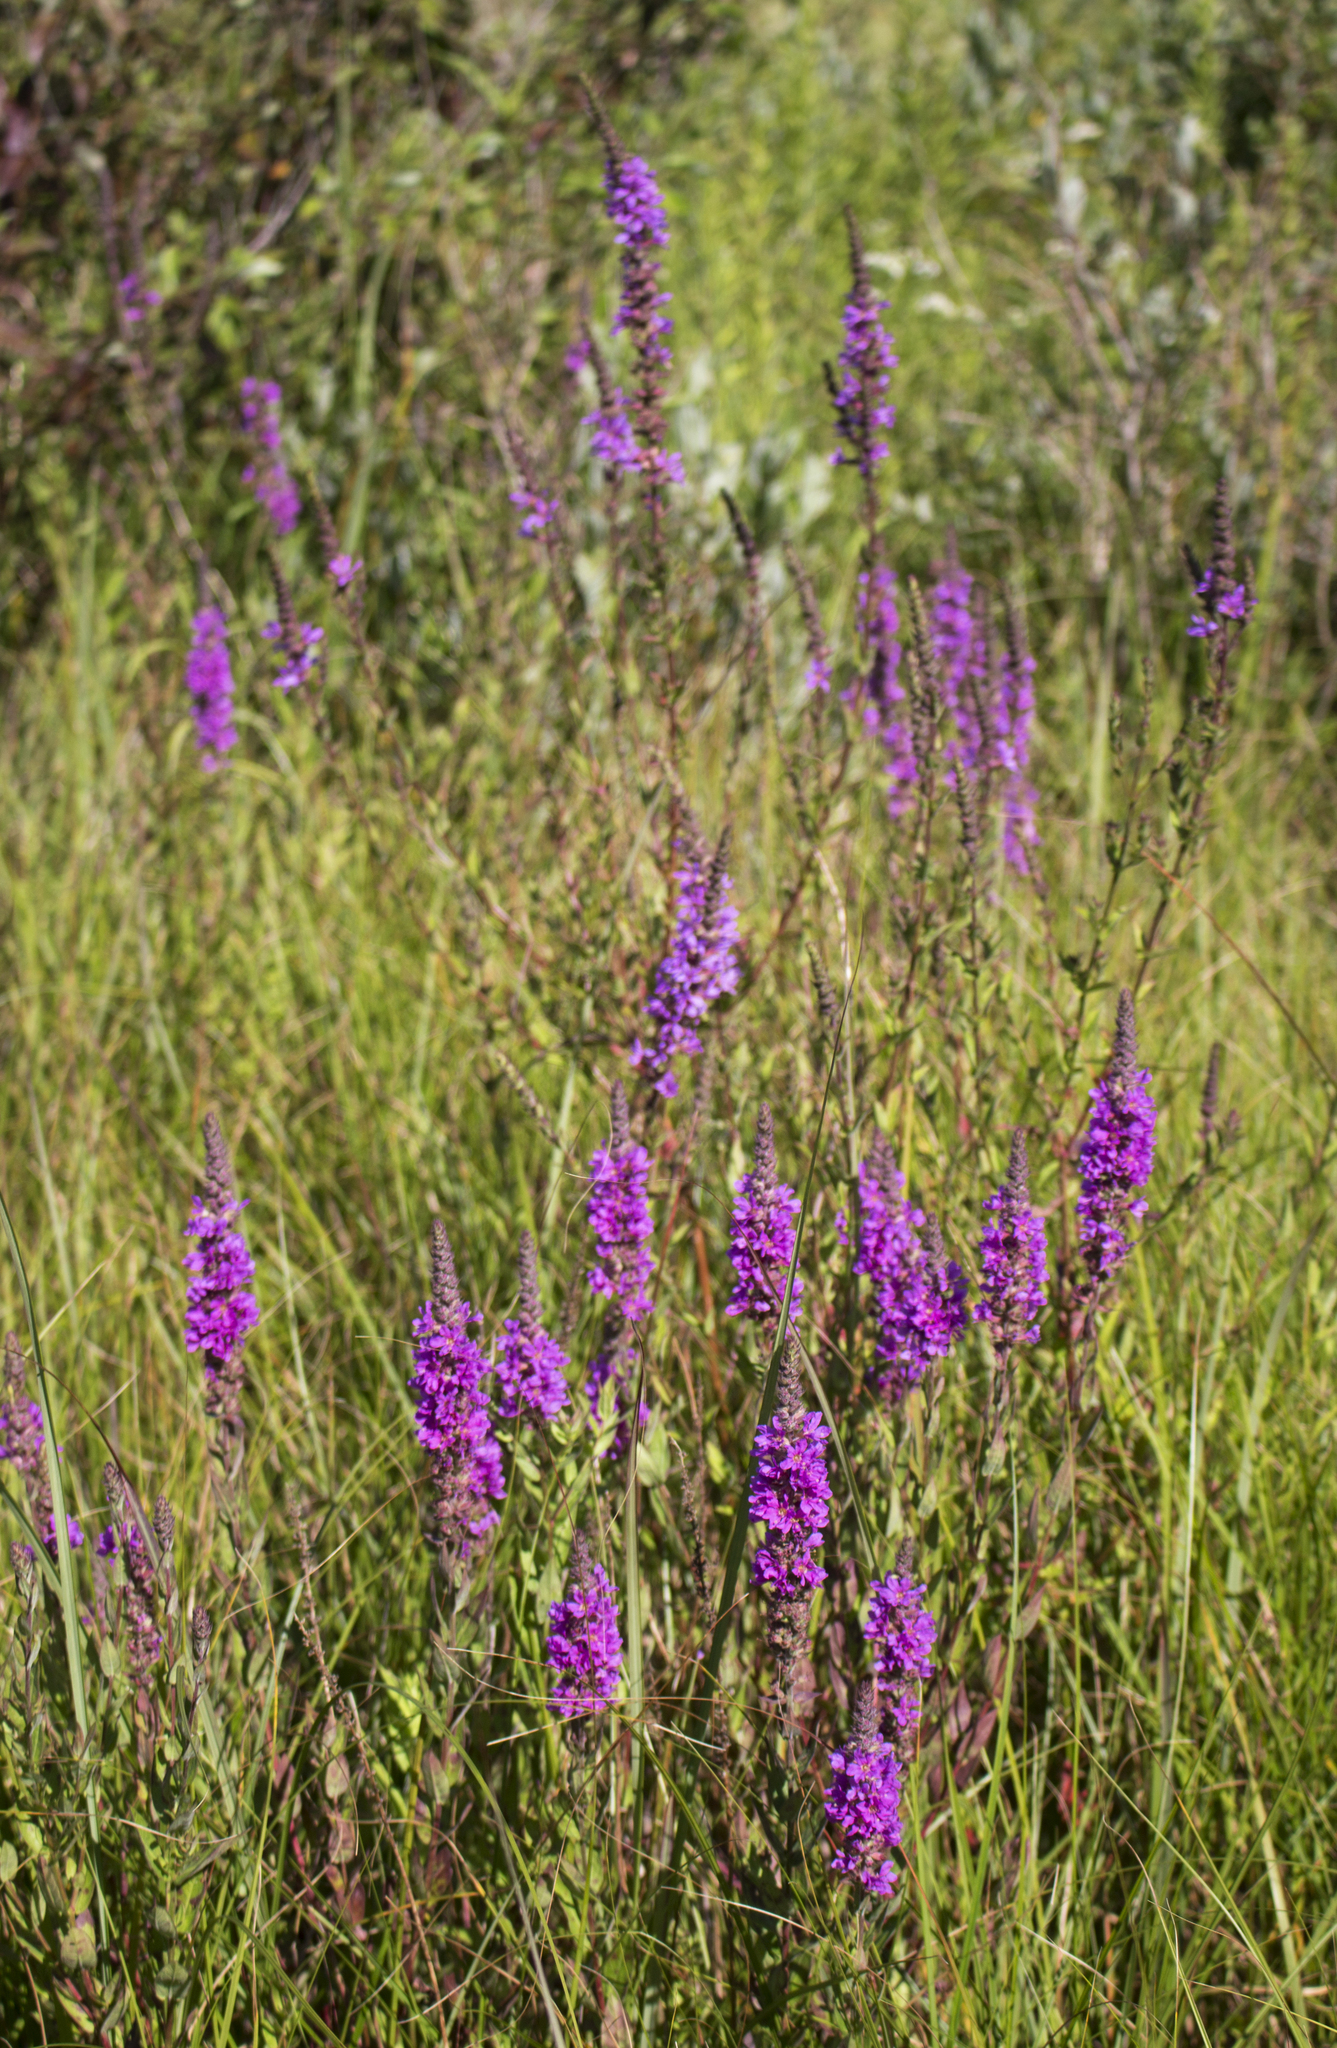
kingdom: Plantae
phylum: Tracheophyta
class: Magnoliopsida
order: Myrtales
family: Lythraceae
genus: Lythrum
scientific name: Lythrum salicaria
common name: Purple loosestrife
